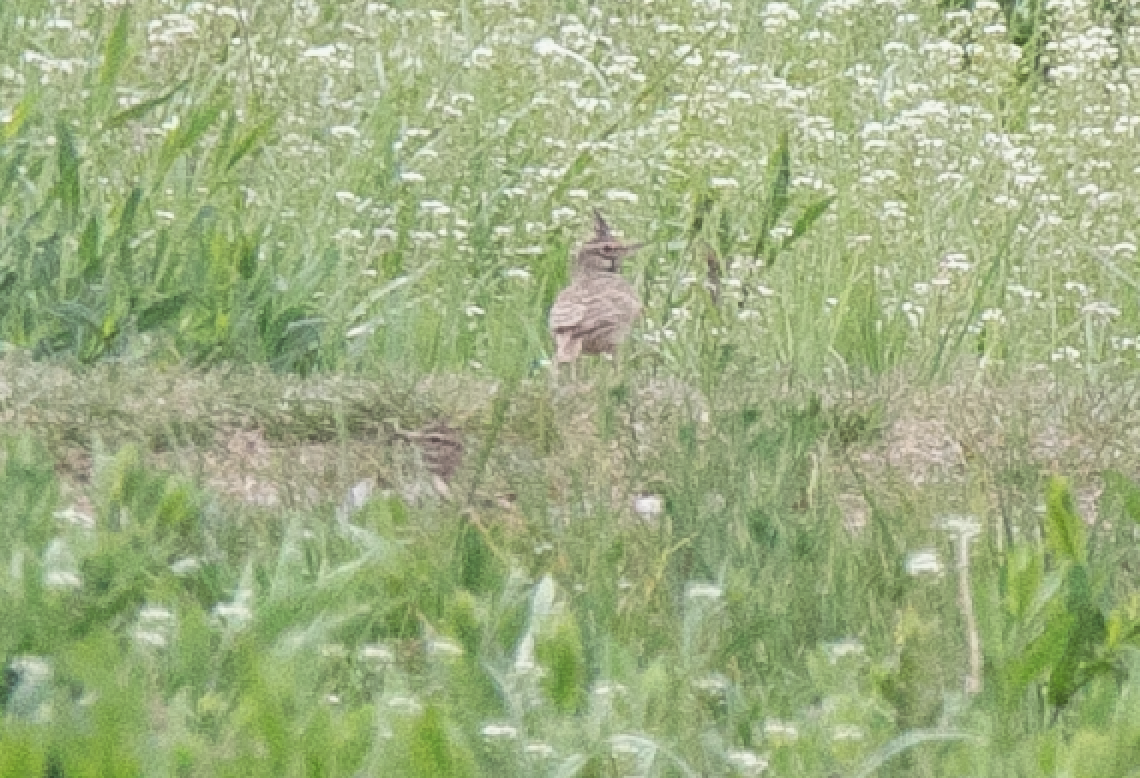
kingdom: Animalia
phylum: Chordata
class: Aves
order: Passeriformes
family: Alaudidae
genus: Galerida
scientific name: Galerida cristata
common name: Crested lark
